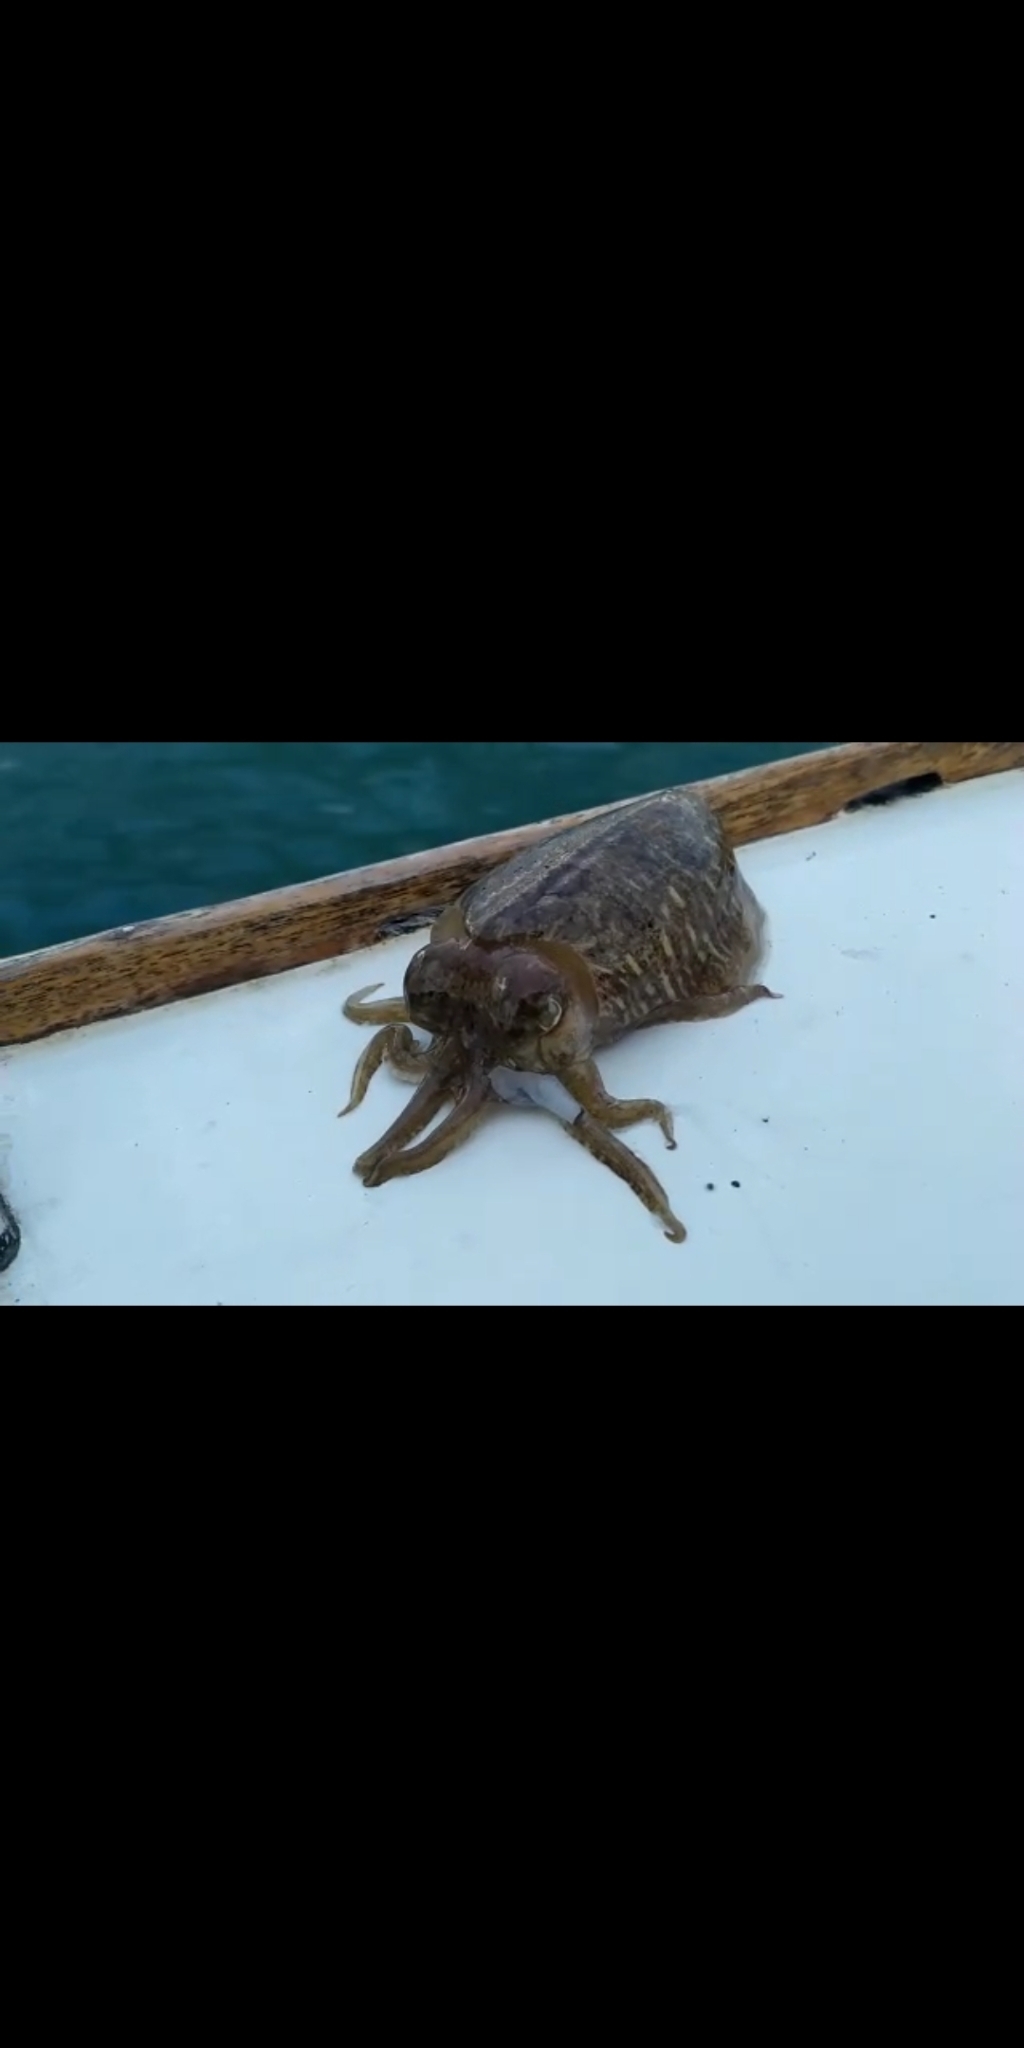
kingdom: Animalia
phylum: Mollusca
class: Cephalopoda
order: Sepiida
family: Sepiidae
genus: Sepia
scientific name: Sepia officinalis
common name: Common cuttlefish
